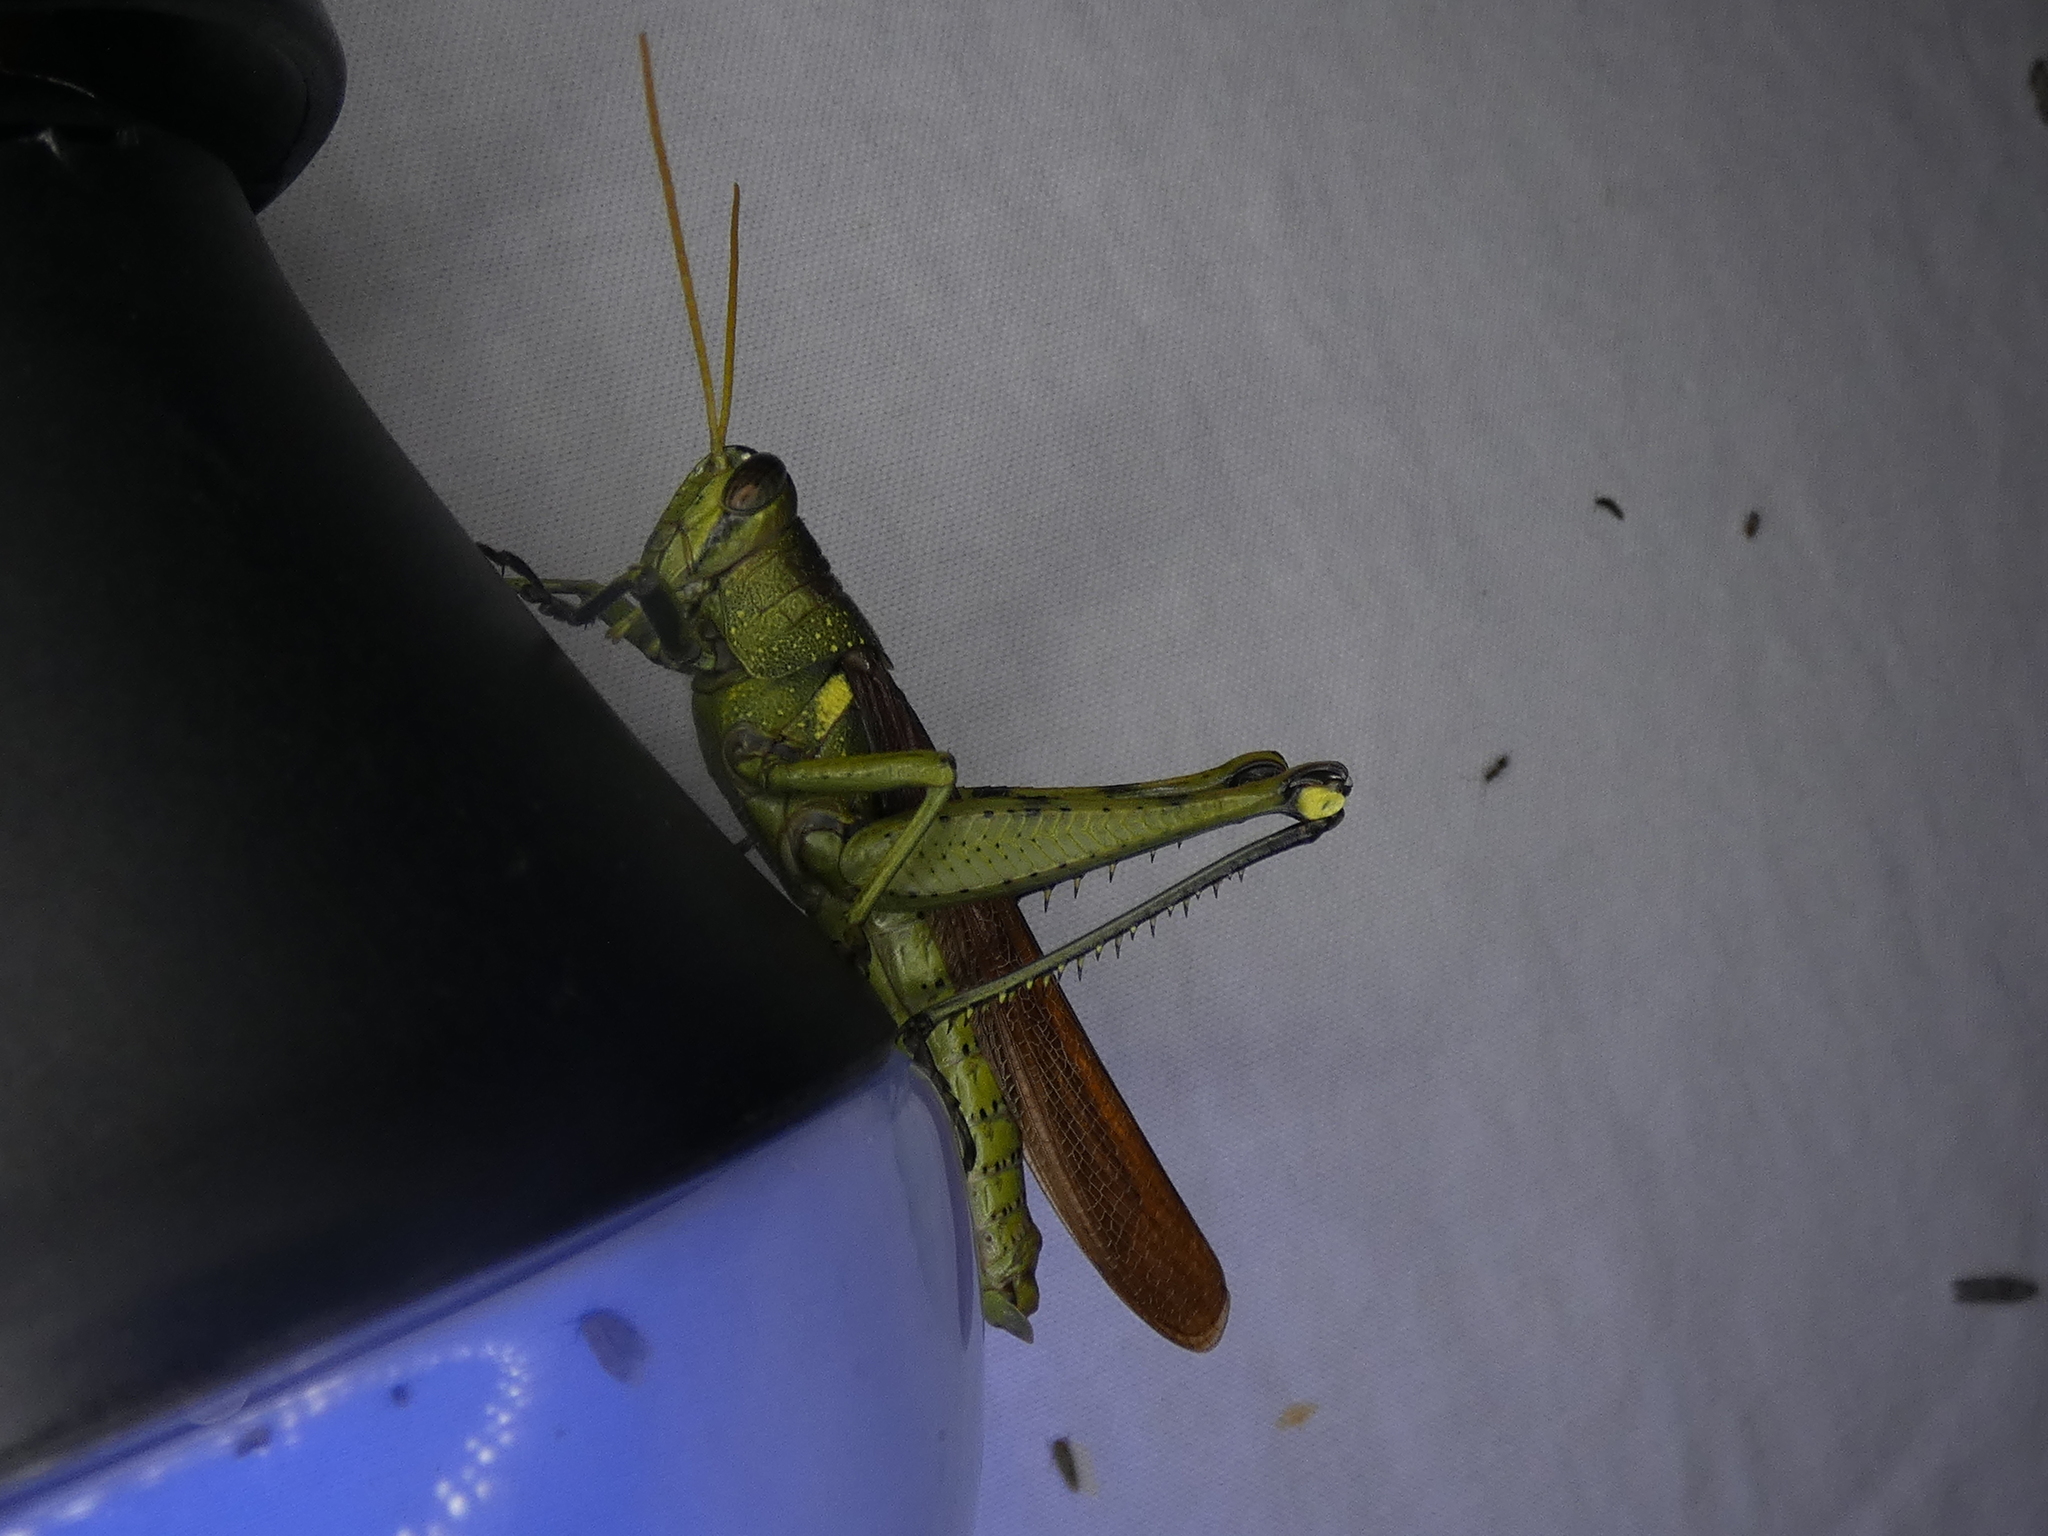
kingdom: Animalia
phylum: Arthropoda
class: Insecta
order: Orthoptera
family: Acrididae
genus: Schistocerca
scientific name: Schistocerca obscura
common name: Obscure bird grasshopper
